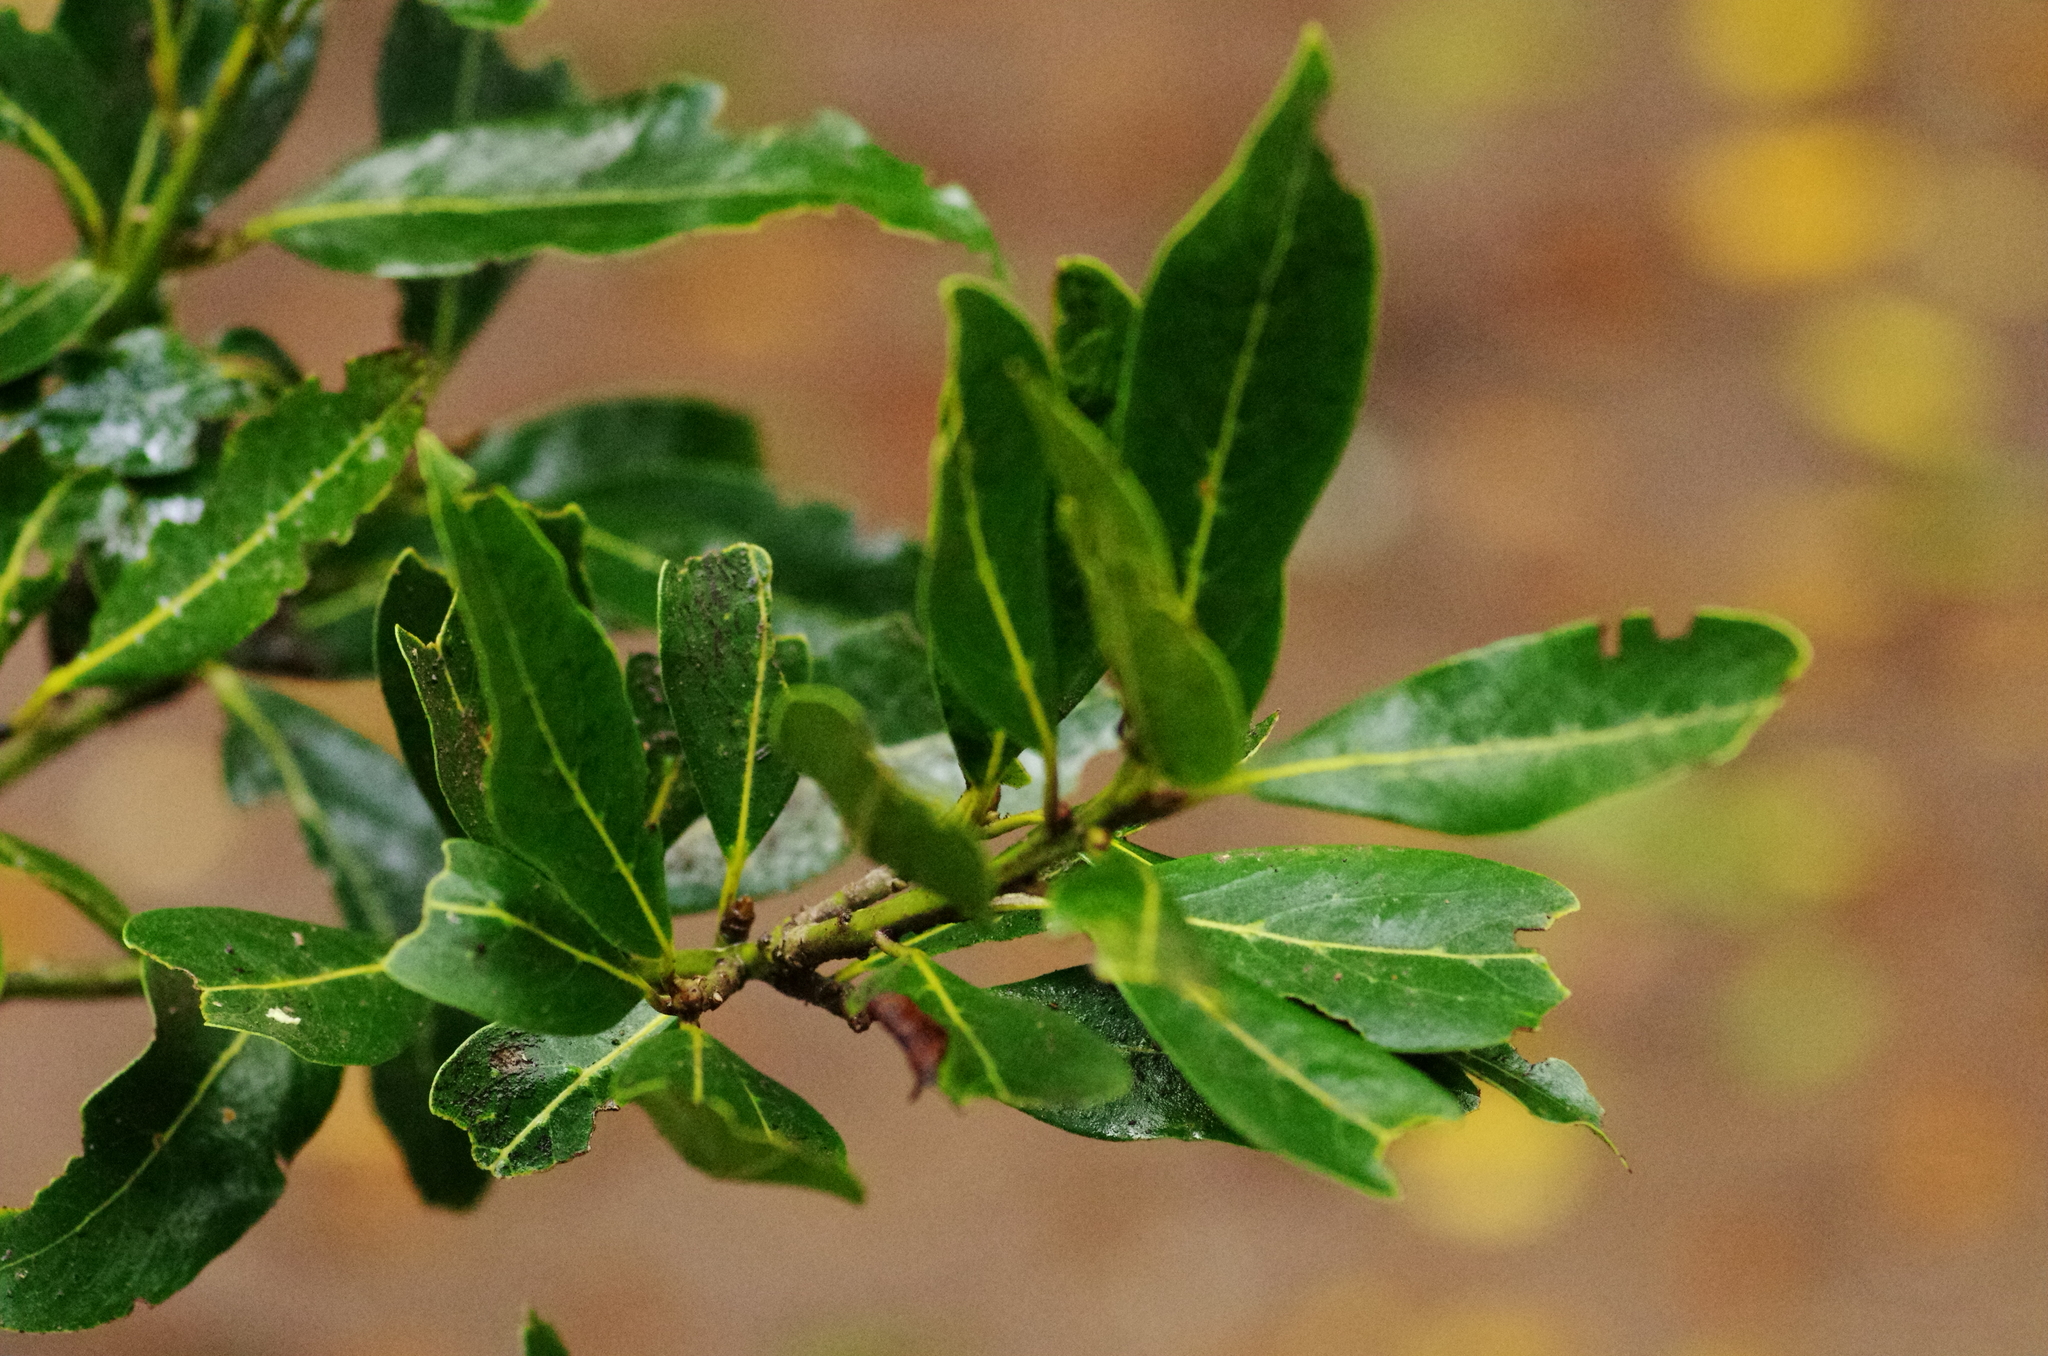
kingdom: Plantae
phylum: Tracheophyta
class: Magnoliopsida
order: Laurales
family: Lauraceae
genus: Laurus
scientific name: Laurus novocanariensis
